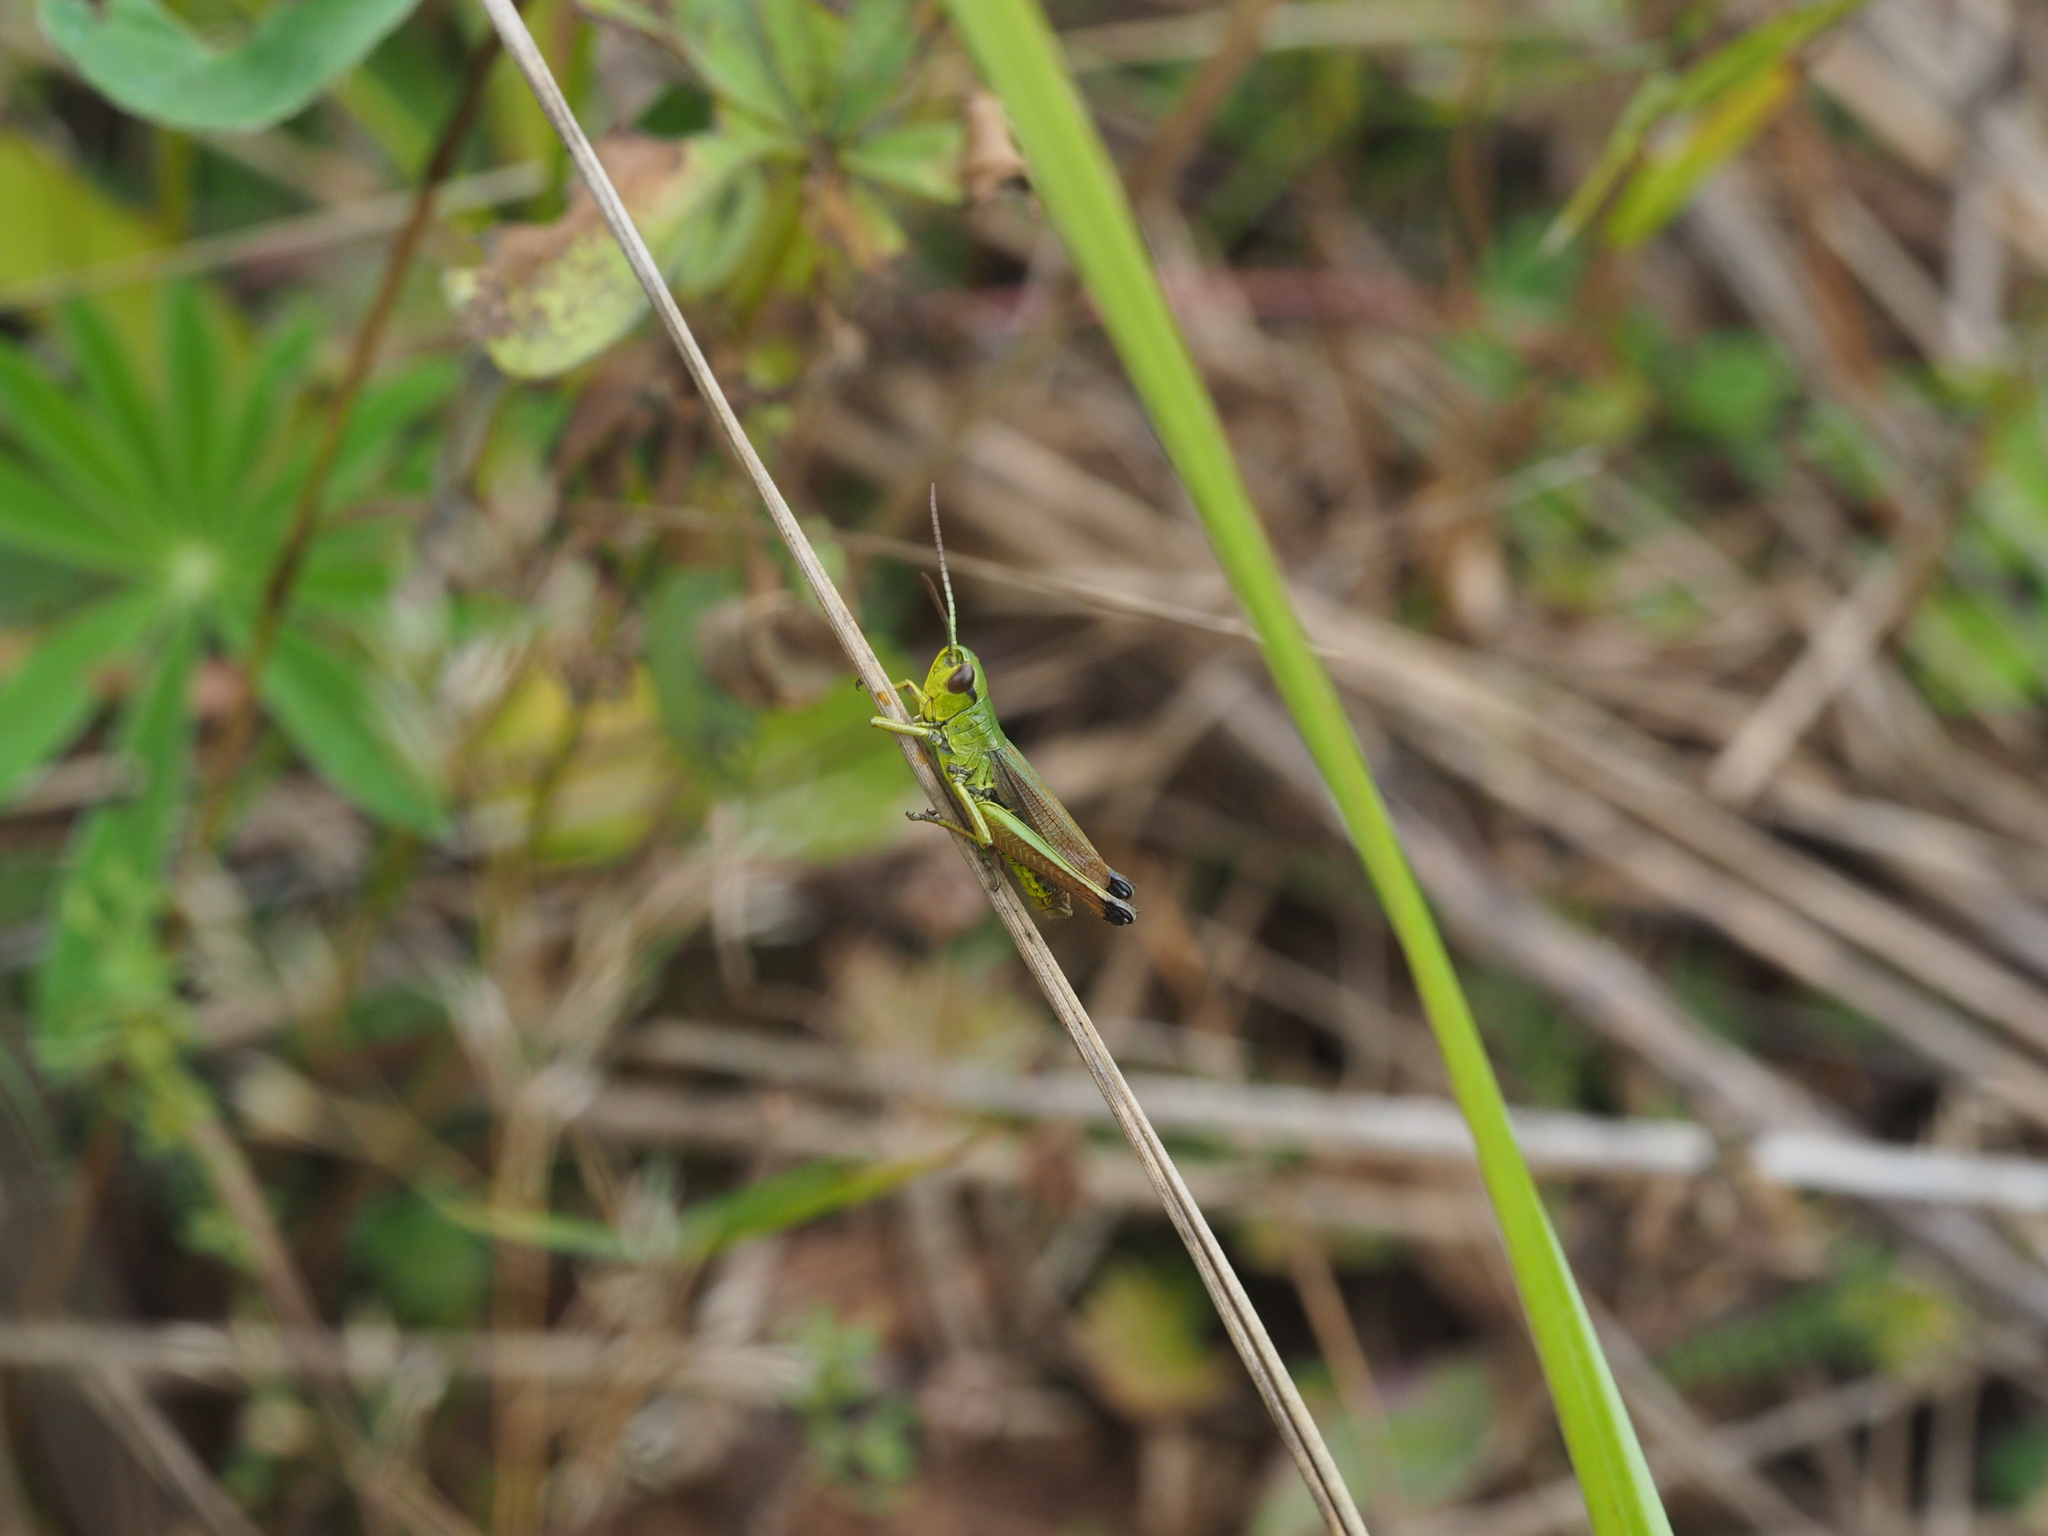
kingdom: Animalia
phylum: Arthropoda
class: Insecta
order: Orthoptera
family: Acrididae
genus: Pseudochorthippus
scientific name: Pseudochorthippus parallelus
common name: Meadow grasshopper
